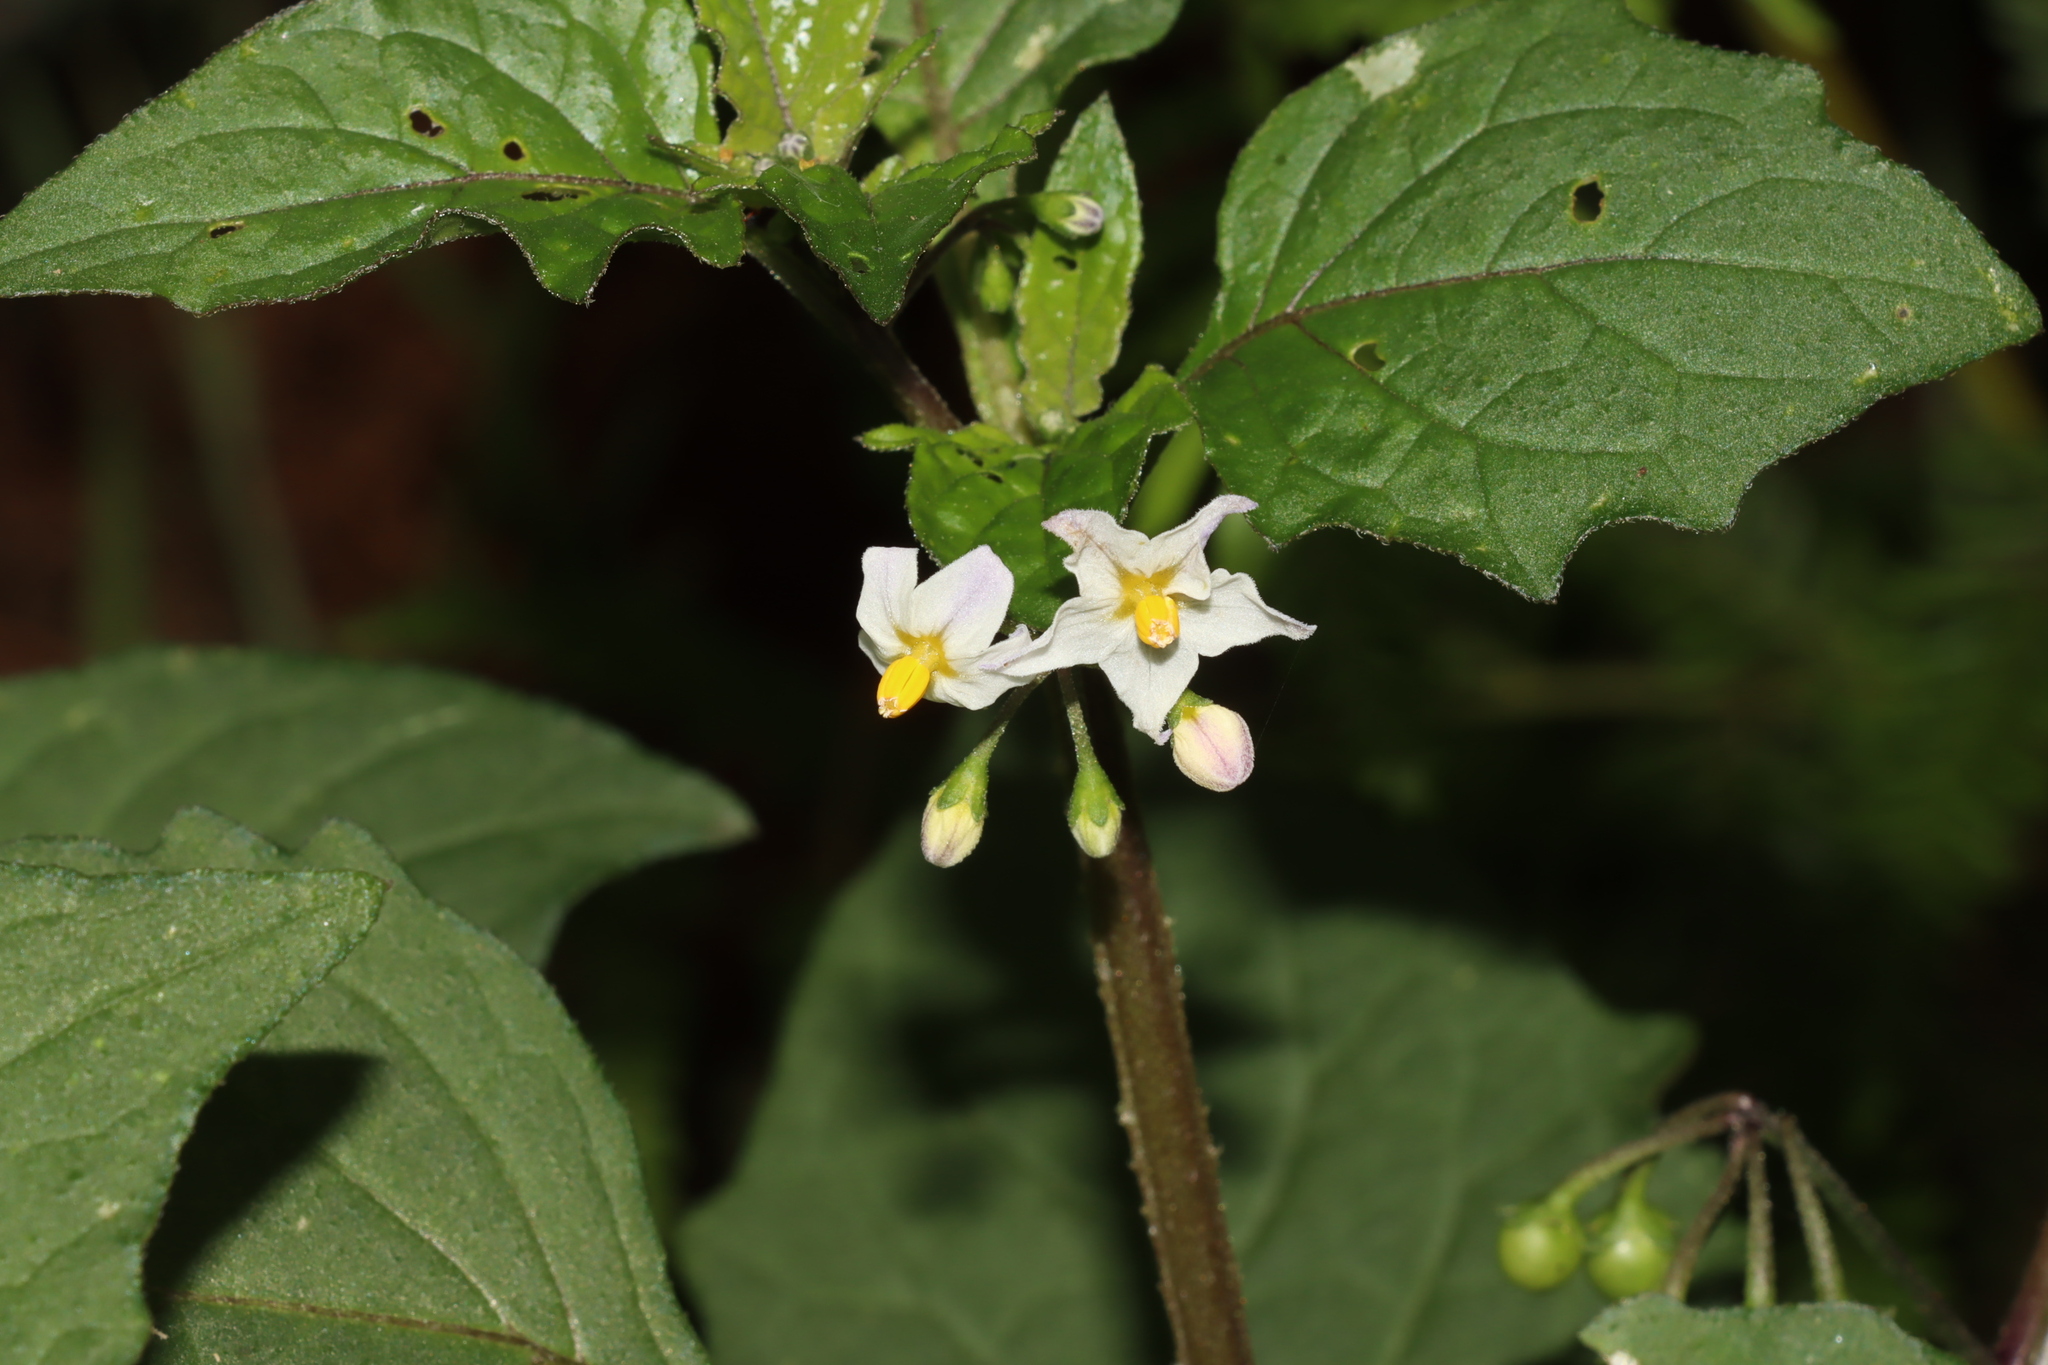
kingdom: Plantae
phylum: Tracheophyta
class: Magnoliopsida
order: Solanales
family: Solanaceae
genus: Solanum
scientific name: Solanum nigrum
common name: Black nightshade
